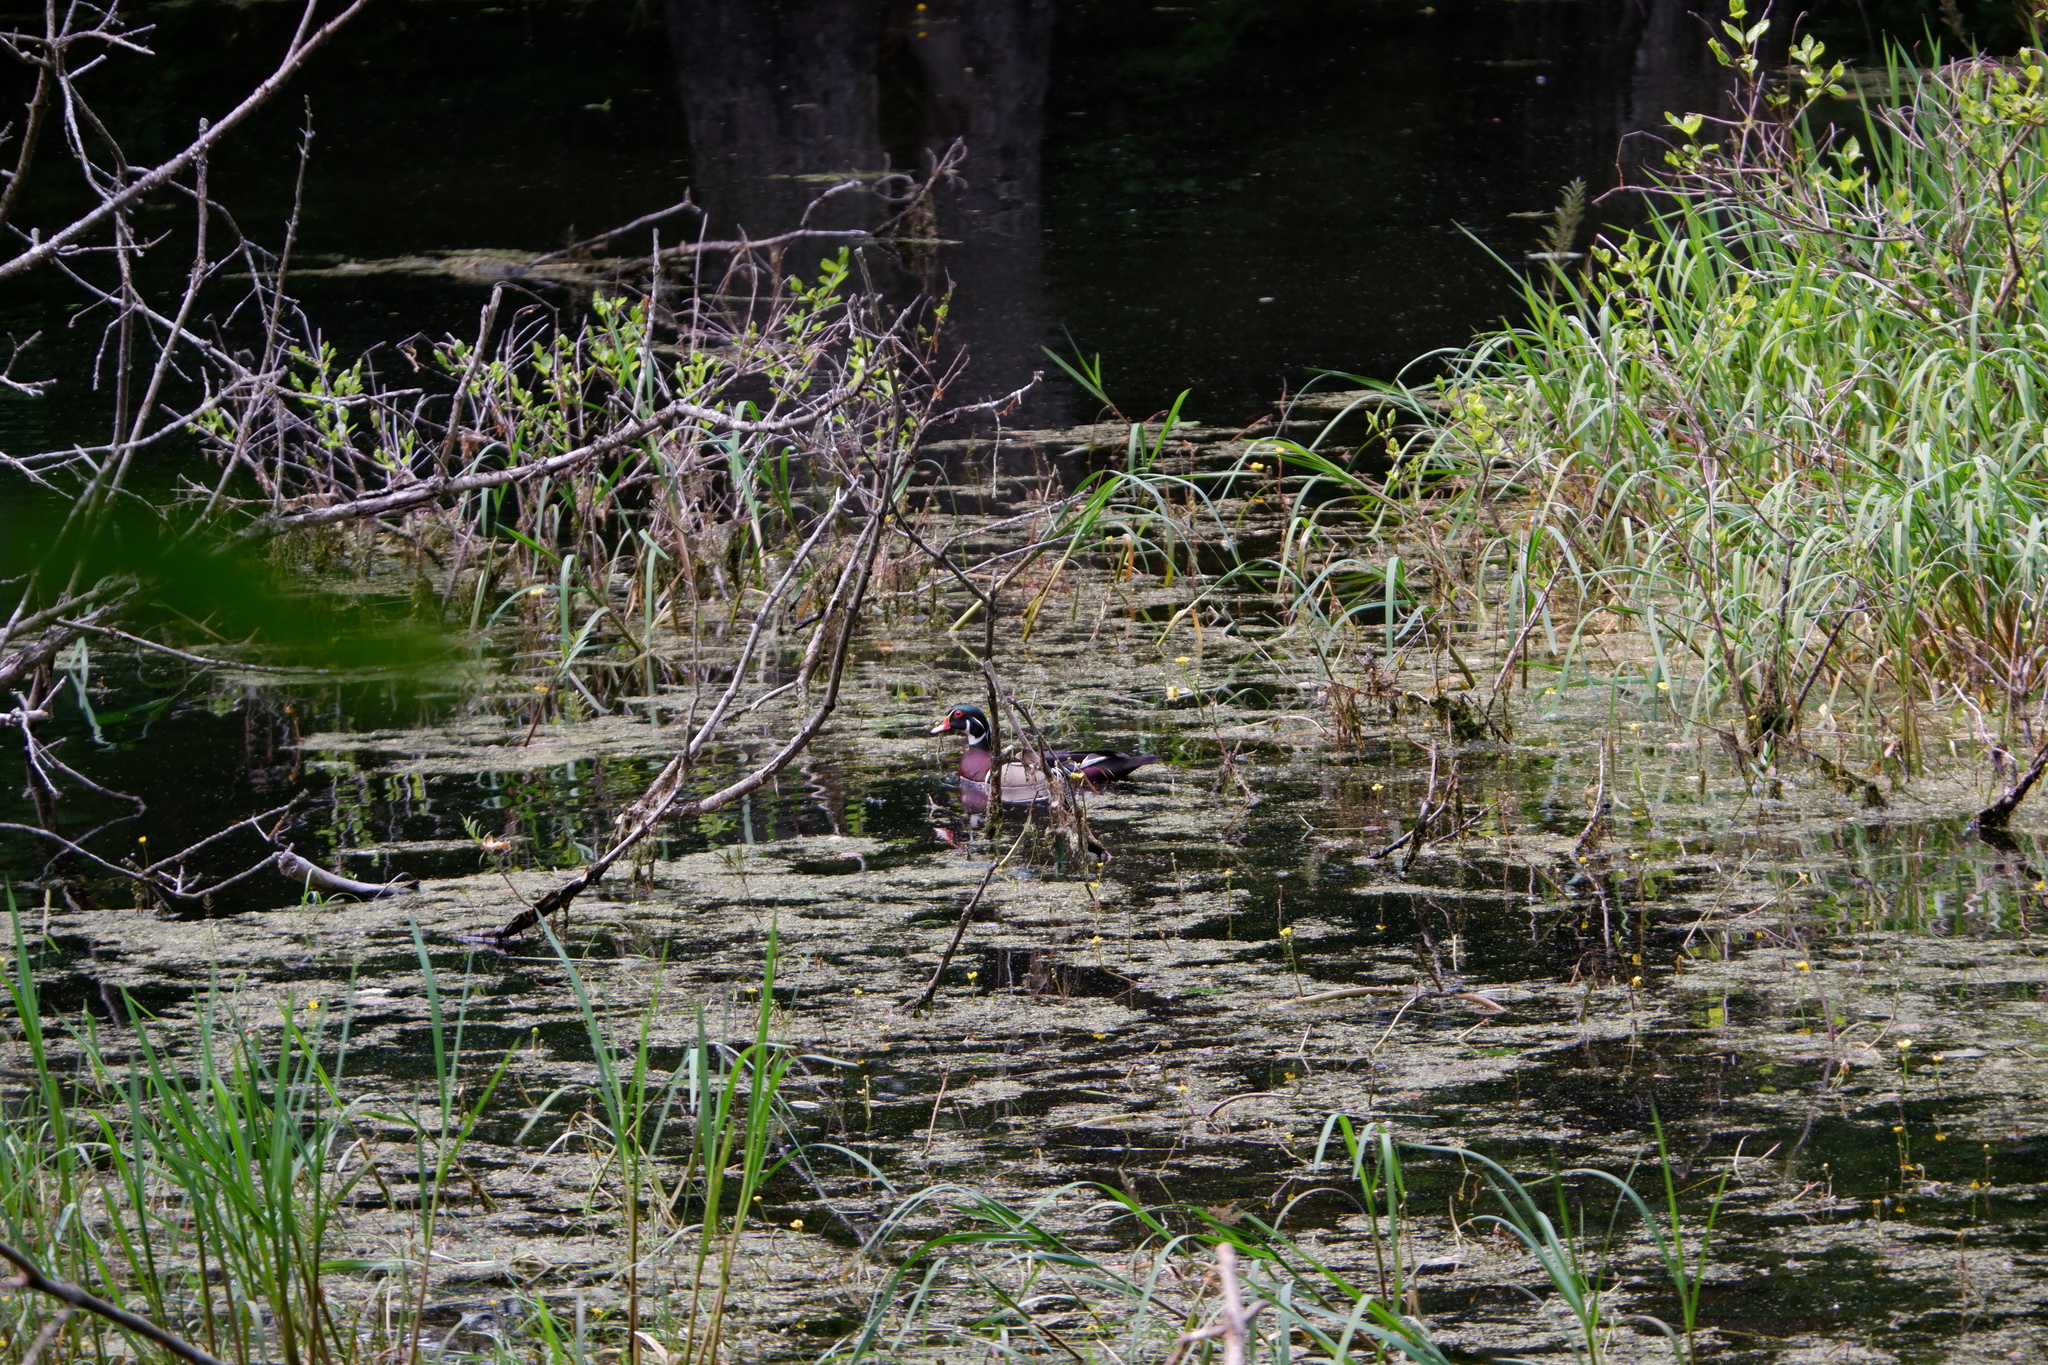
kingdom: Animalia
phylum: Chordata
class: Aves
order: Anseriformes
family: Anatidae
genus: Aix
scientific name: Aix sponsa
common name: Wood duck
